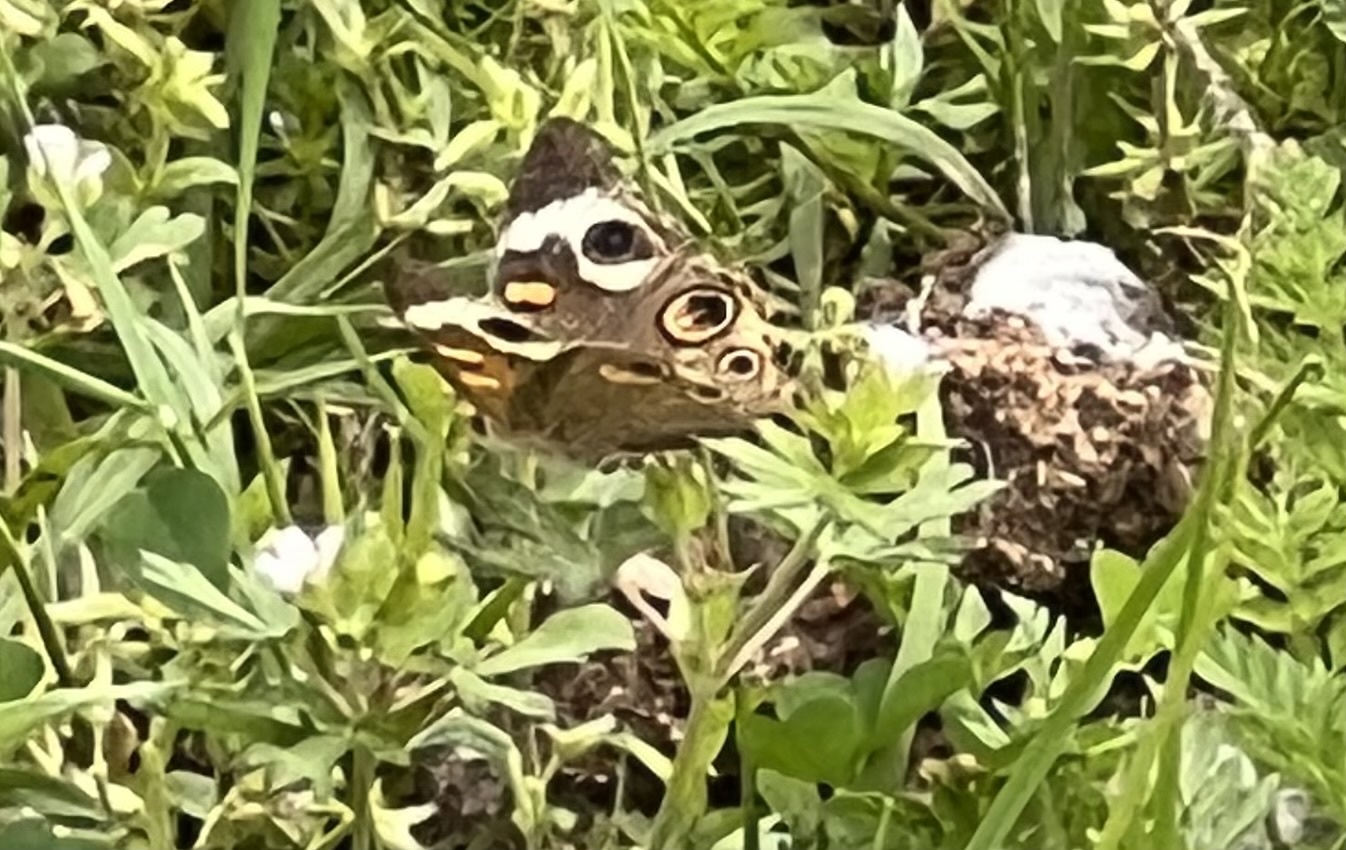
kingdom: Animalia
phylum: Arthropoda
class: Insecta
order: Lepidoptera
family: Nymphalidae
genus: Junonia
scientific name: Junonia coenia
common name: Common buckeye
